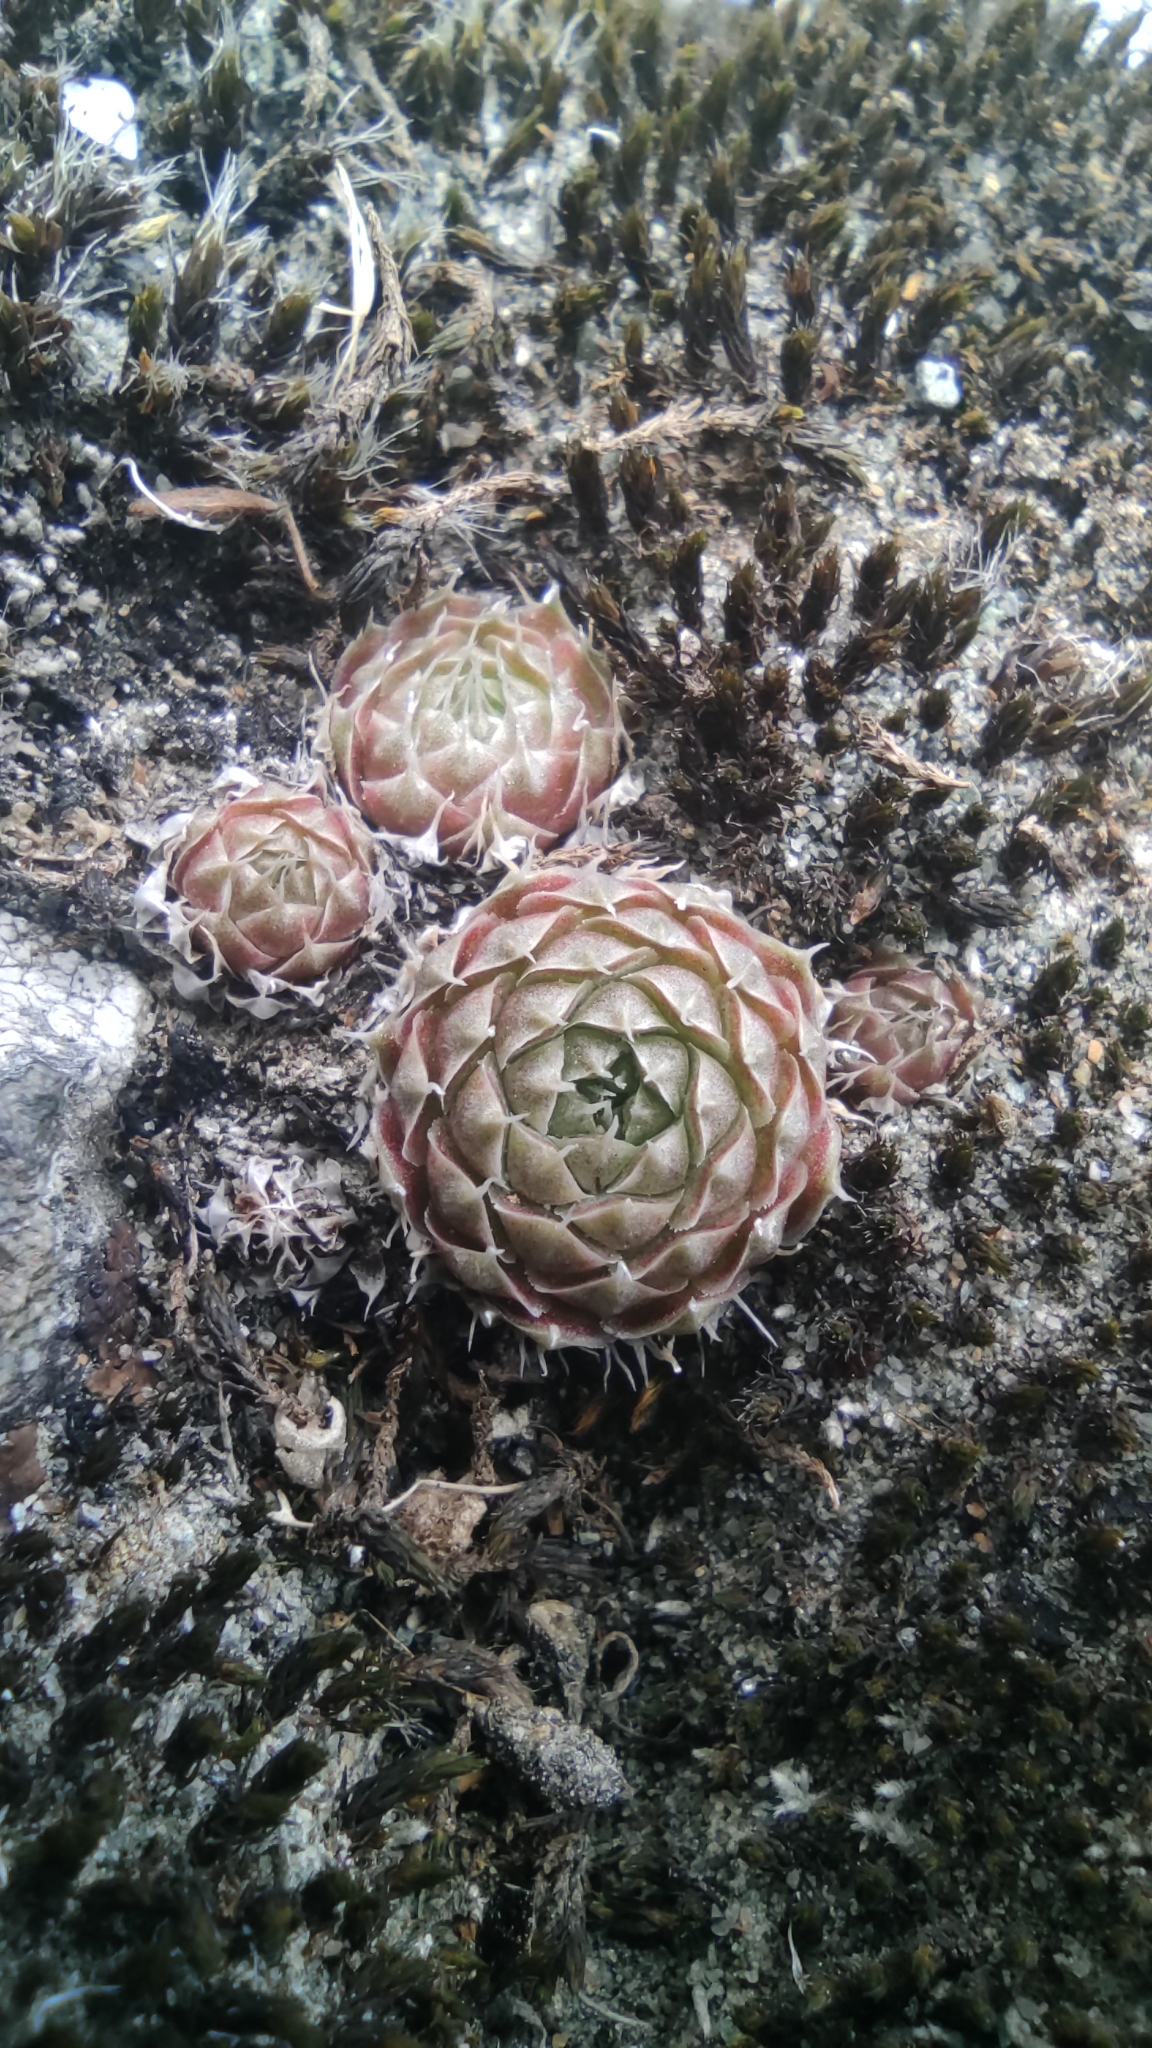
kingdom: Plantae
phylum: Tracheophyta
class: Magnoliopsida
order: Saxifragales
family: Crassulaceae
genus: Orostachys
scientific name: Orostachys spinosa
